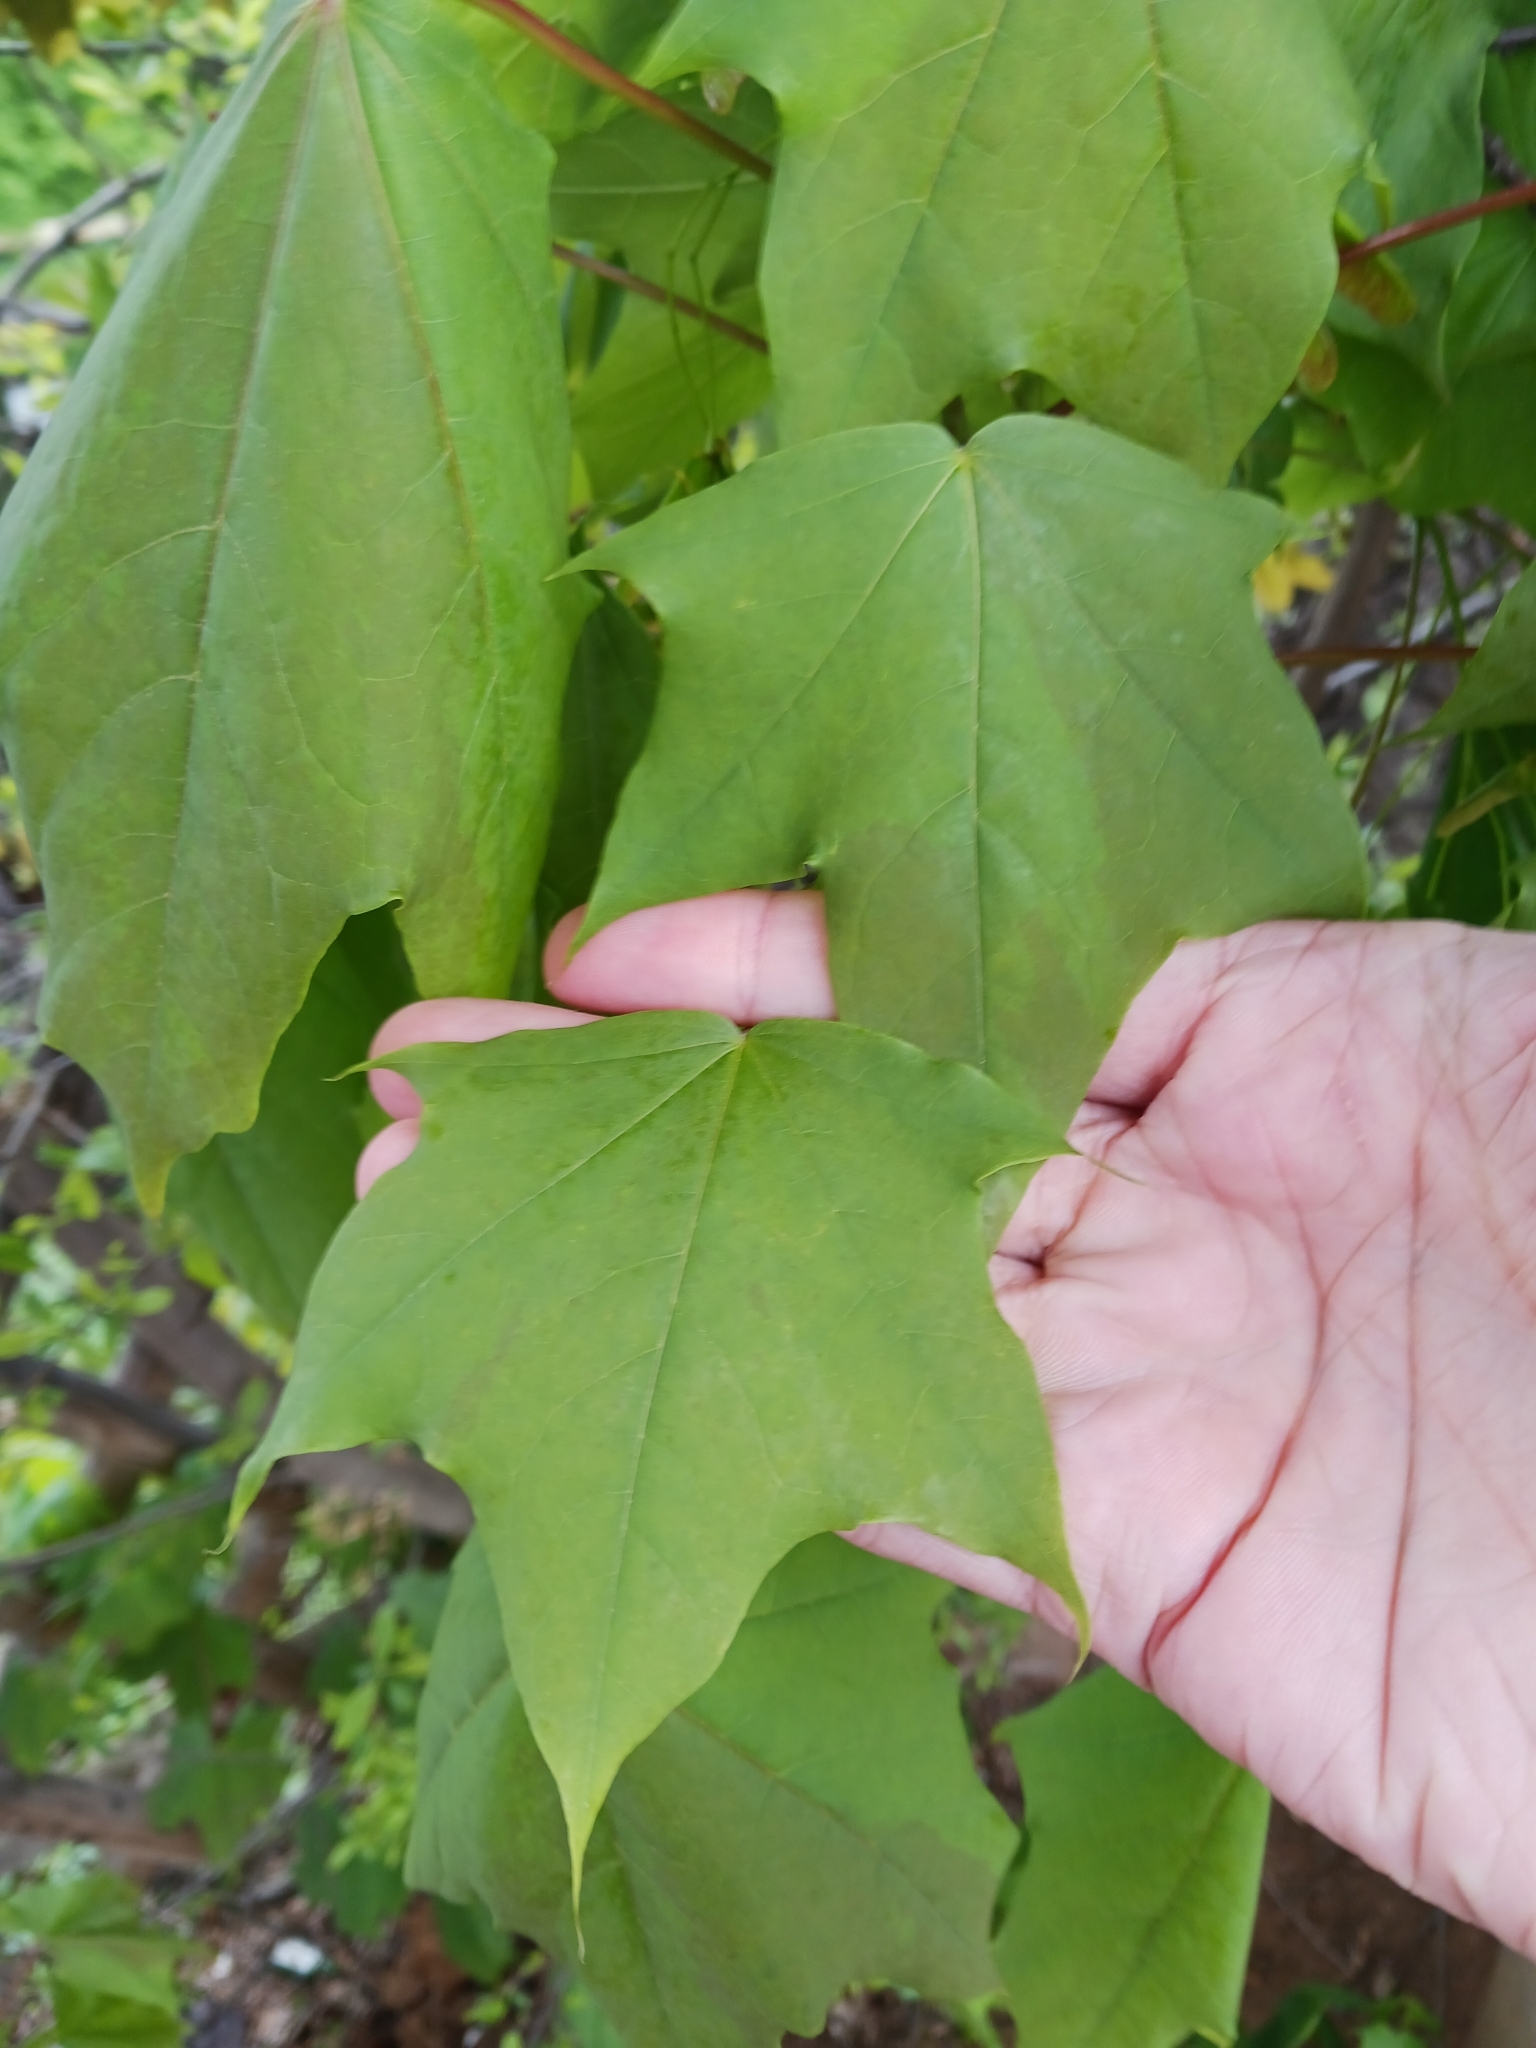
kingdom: Plantae
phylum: Tracheophyta
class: Magnoliopsida
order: Sapindales
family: Sapindaceae
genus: Acer
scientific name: Acer cappadocicum
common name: Cappadocian maple
